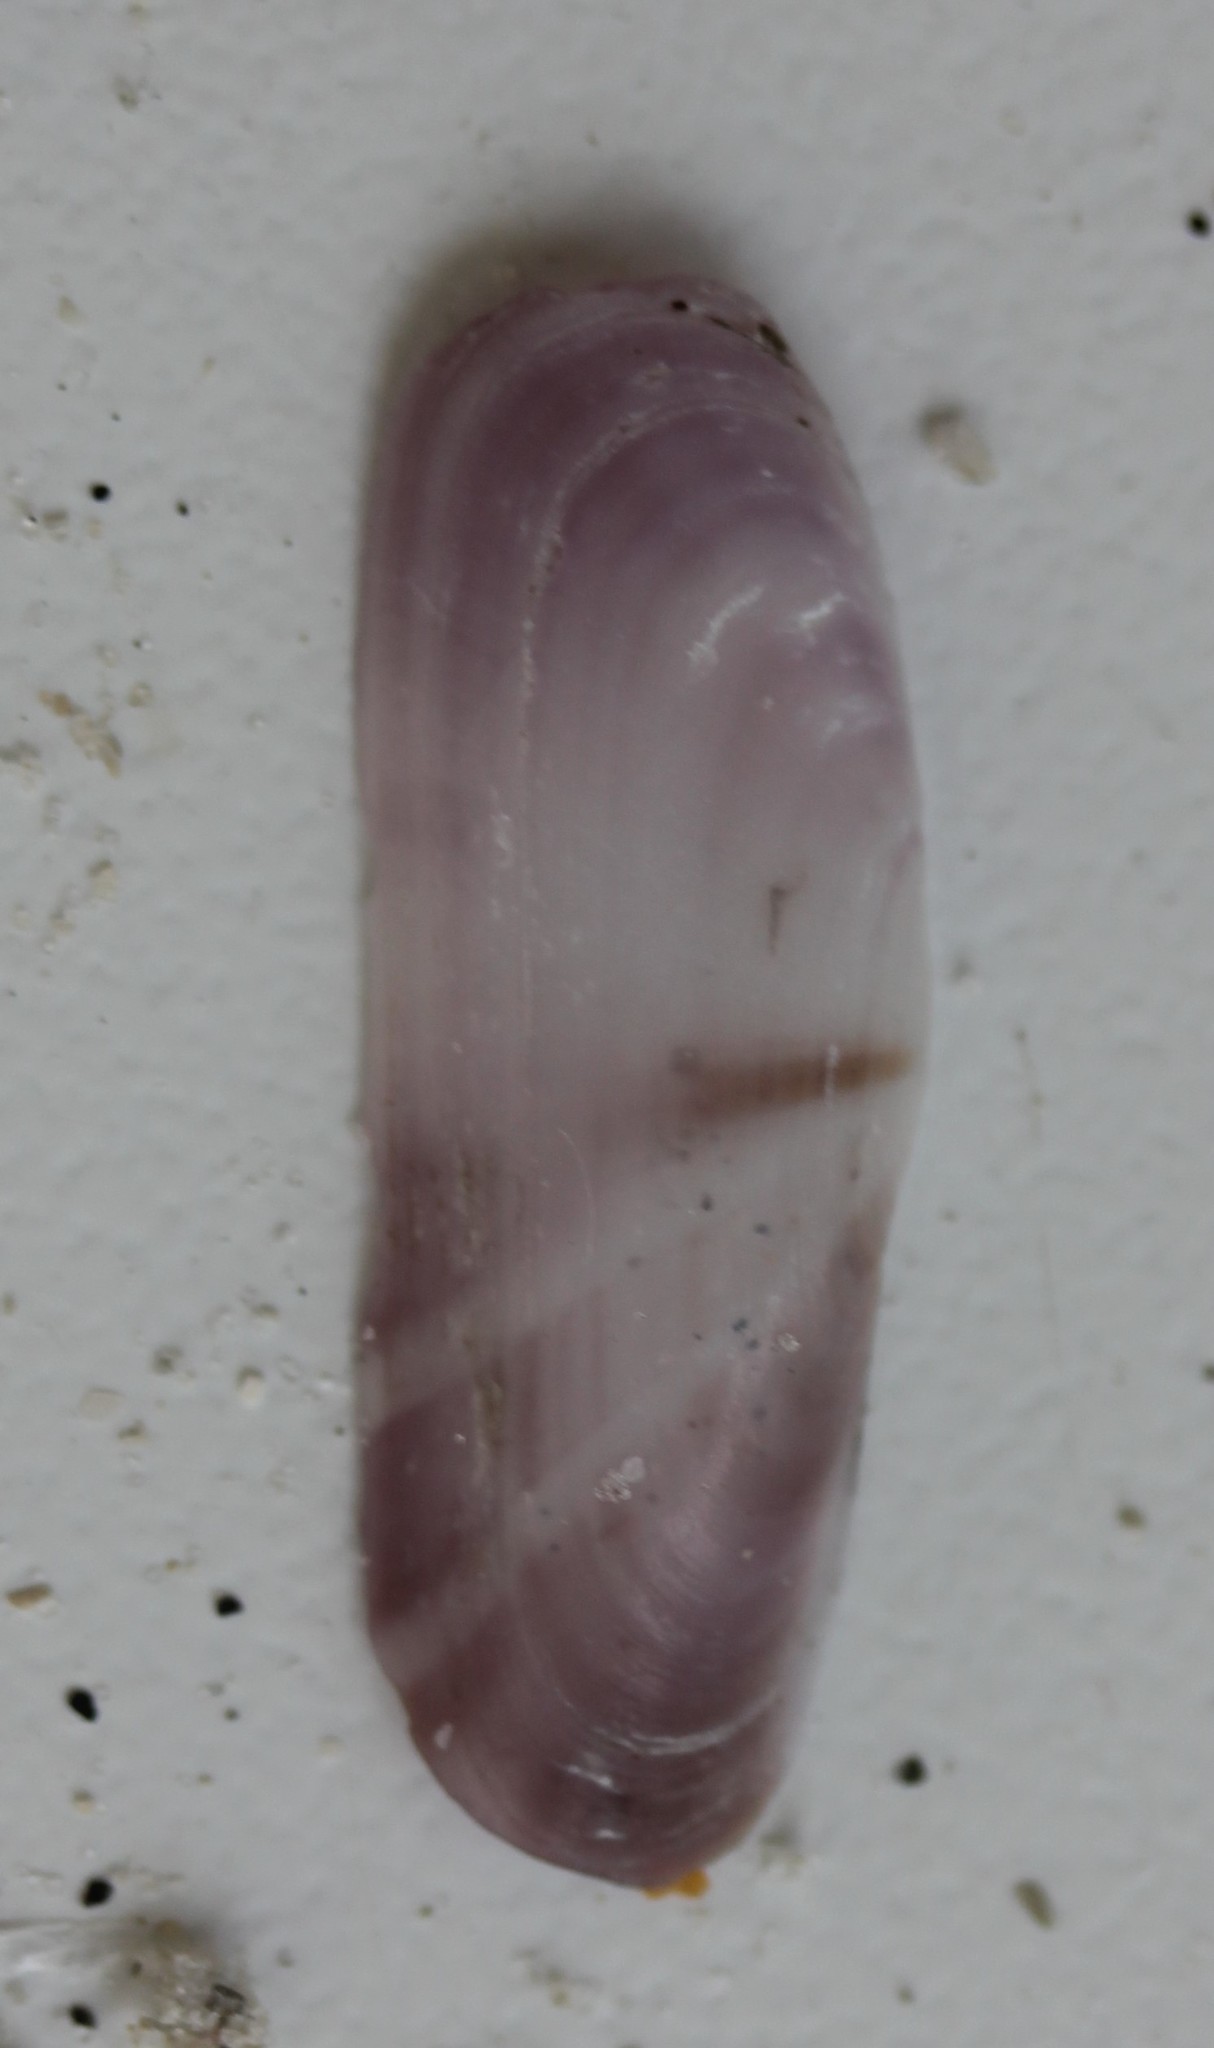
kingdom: Animalia
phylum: Mollusca
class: Bivalvia
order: Cardiida
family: Solecurtidae
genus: Tagelus
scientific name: Tagelus divisus
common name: Purplish tagelus
